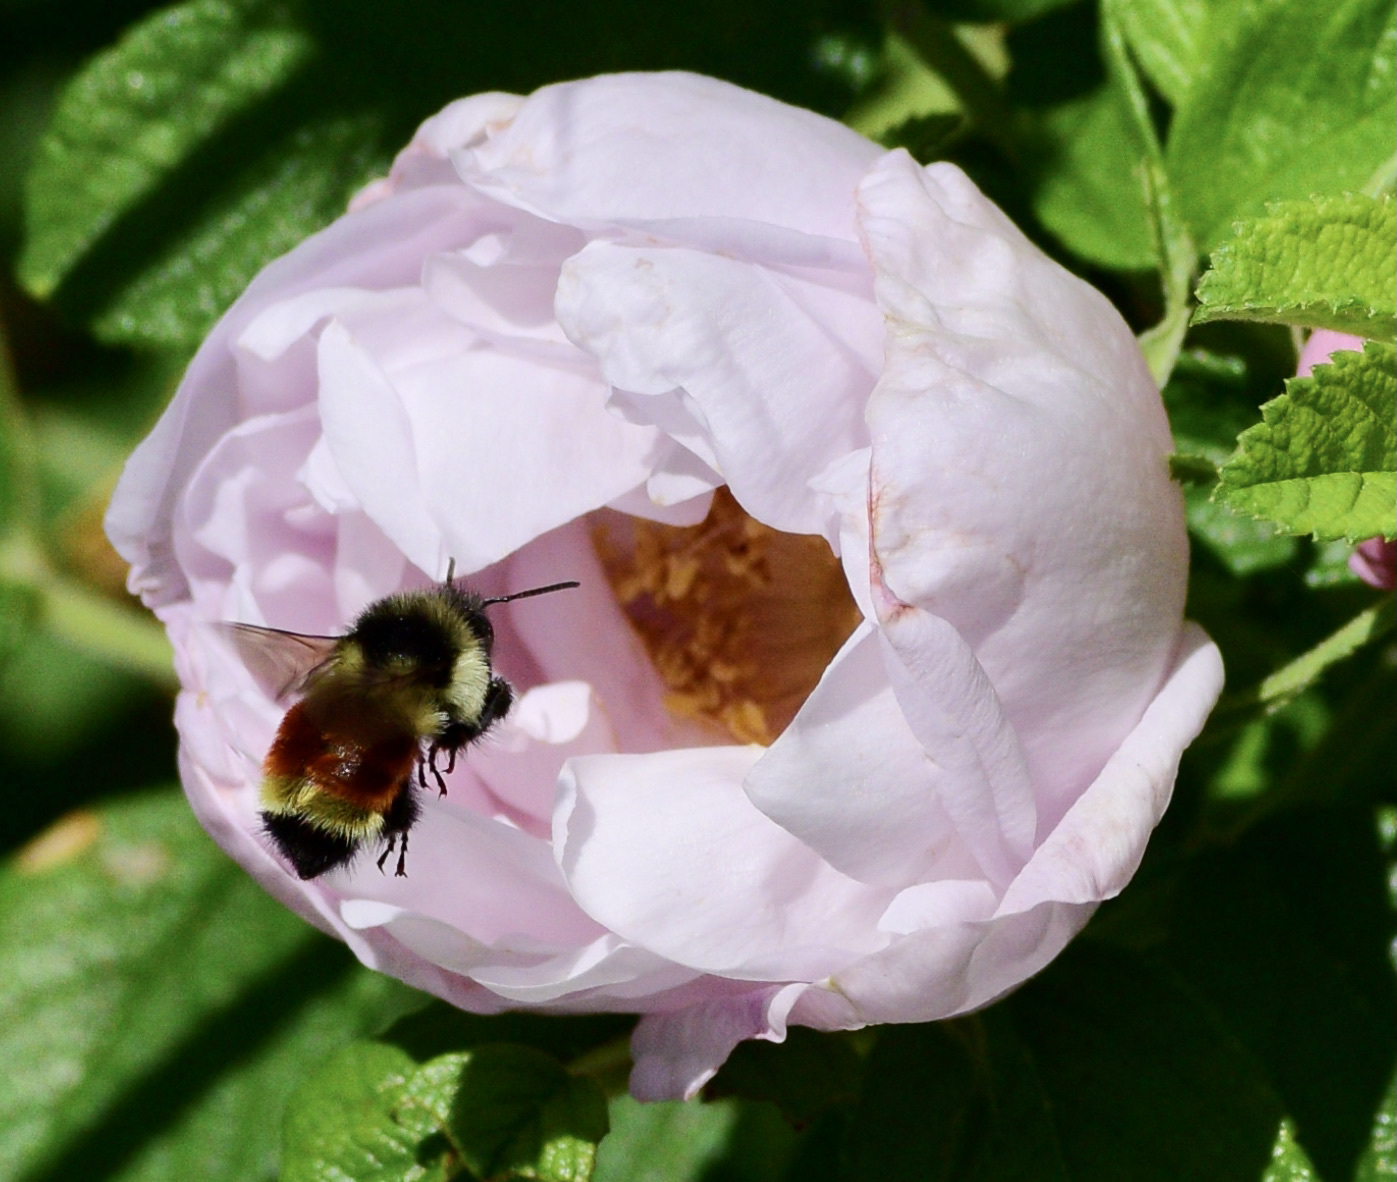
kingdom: Animalia
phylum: Arthropoda
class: Insecta
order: Hymenoptera
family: Apidae
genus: Bombus
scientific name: Bombus ternarius
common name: Tri-colored bumble bee
